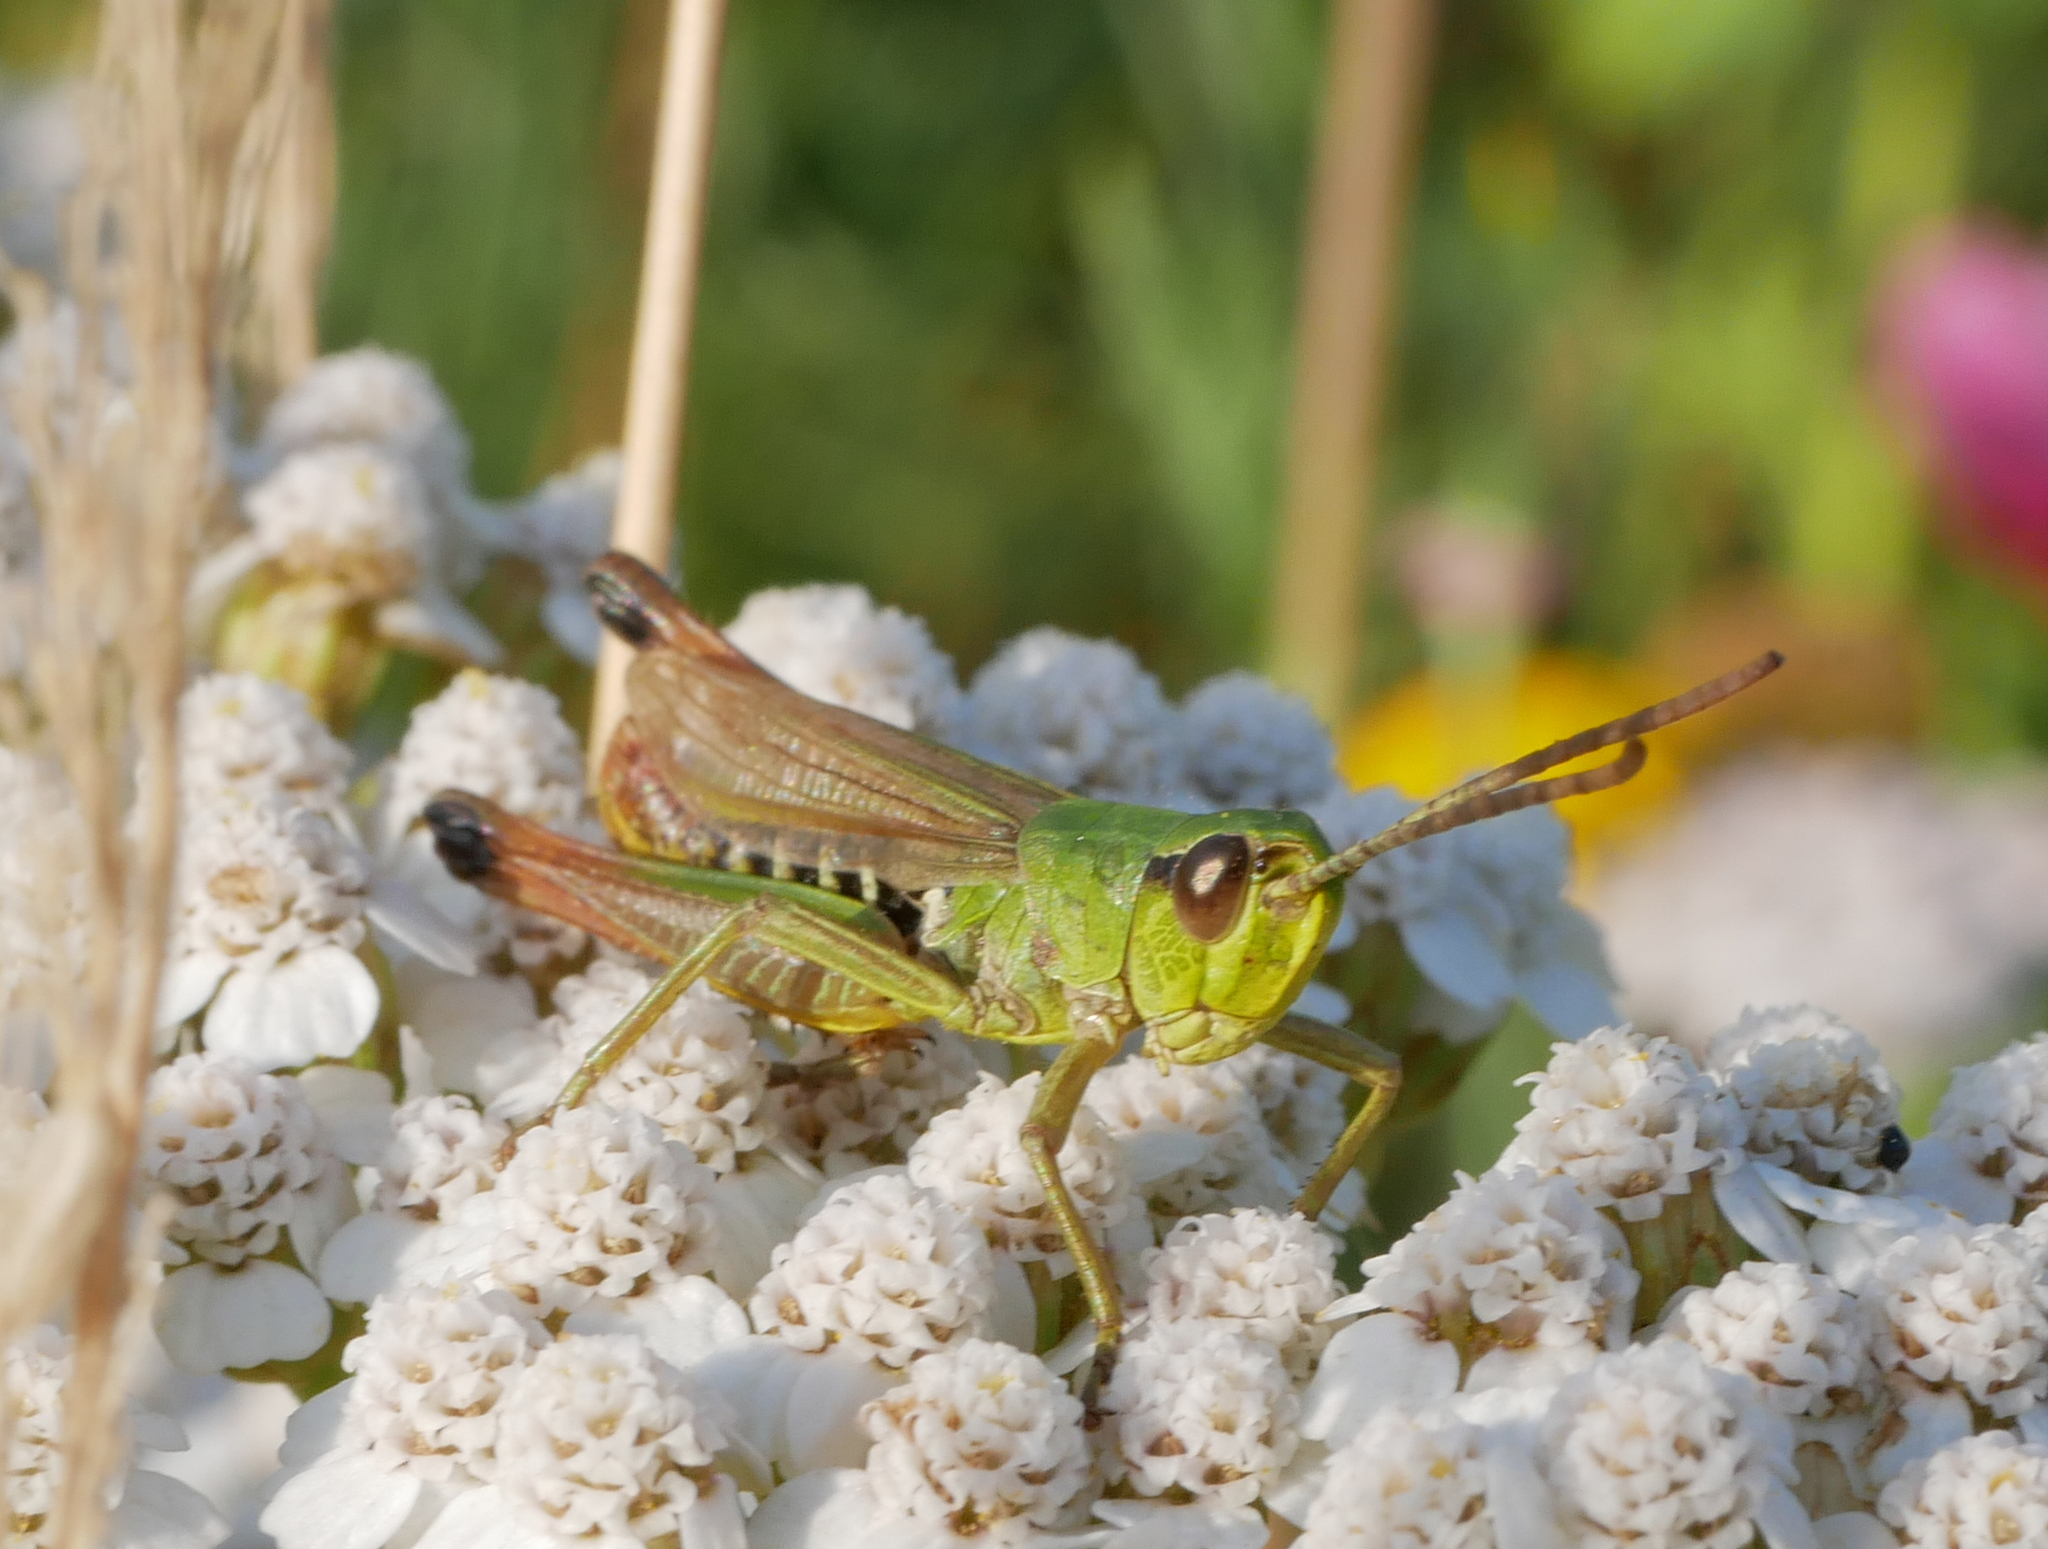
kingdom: Animalia
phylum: Arthropoda
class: Insecta
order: Orthoptera
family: Acrididae
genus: Pseudochorthippus
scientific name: Pseudochorthippus parallelus
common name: Meadow grasshopper
